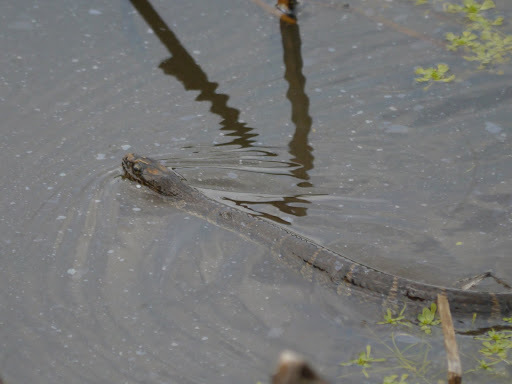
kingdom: Animalia
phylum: Chordata
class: Squamata
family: Colubridae
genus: Nerodia
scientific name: Nerodia sipedon
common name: Northern water snake
